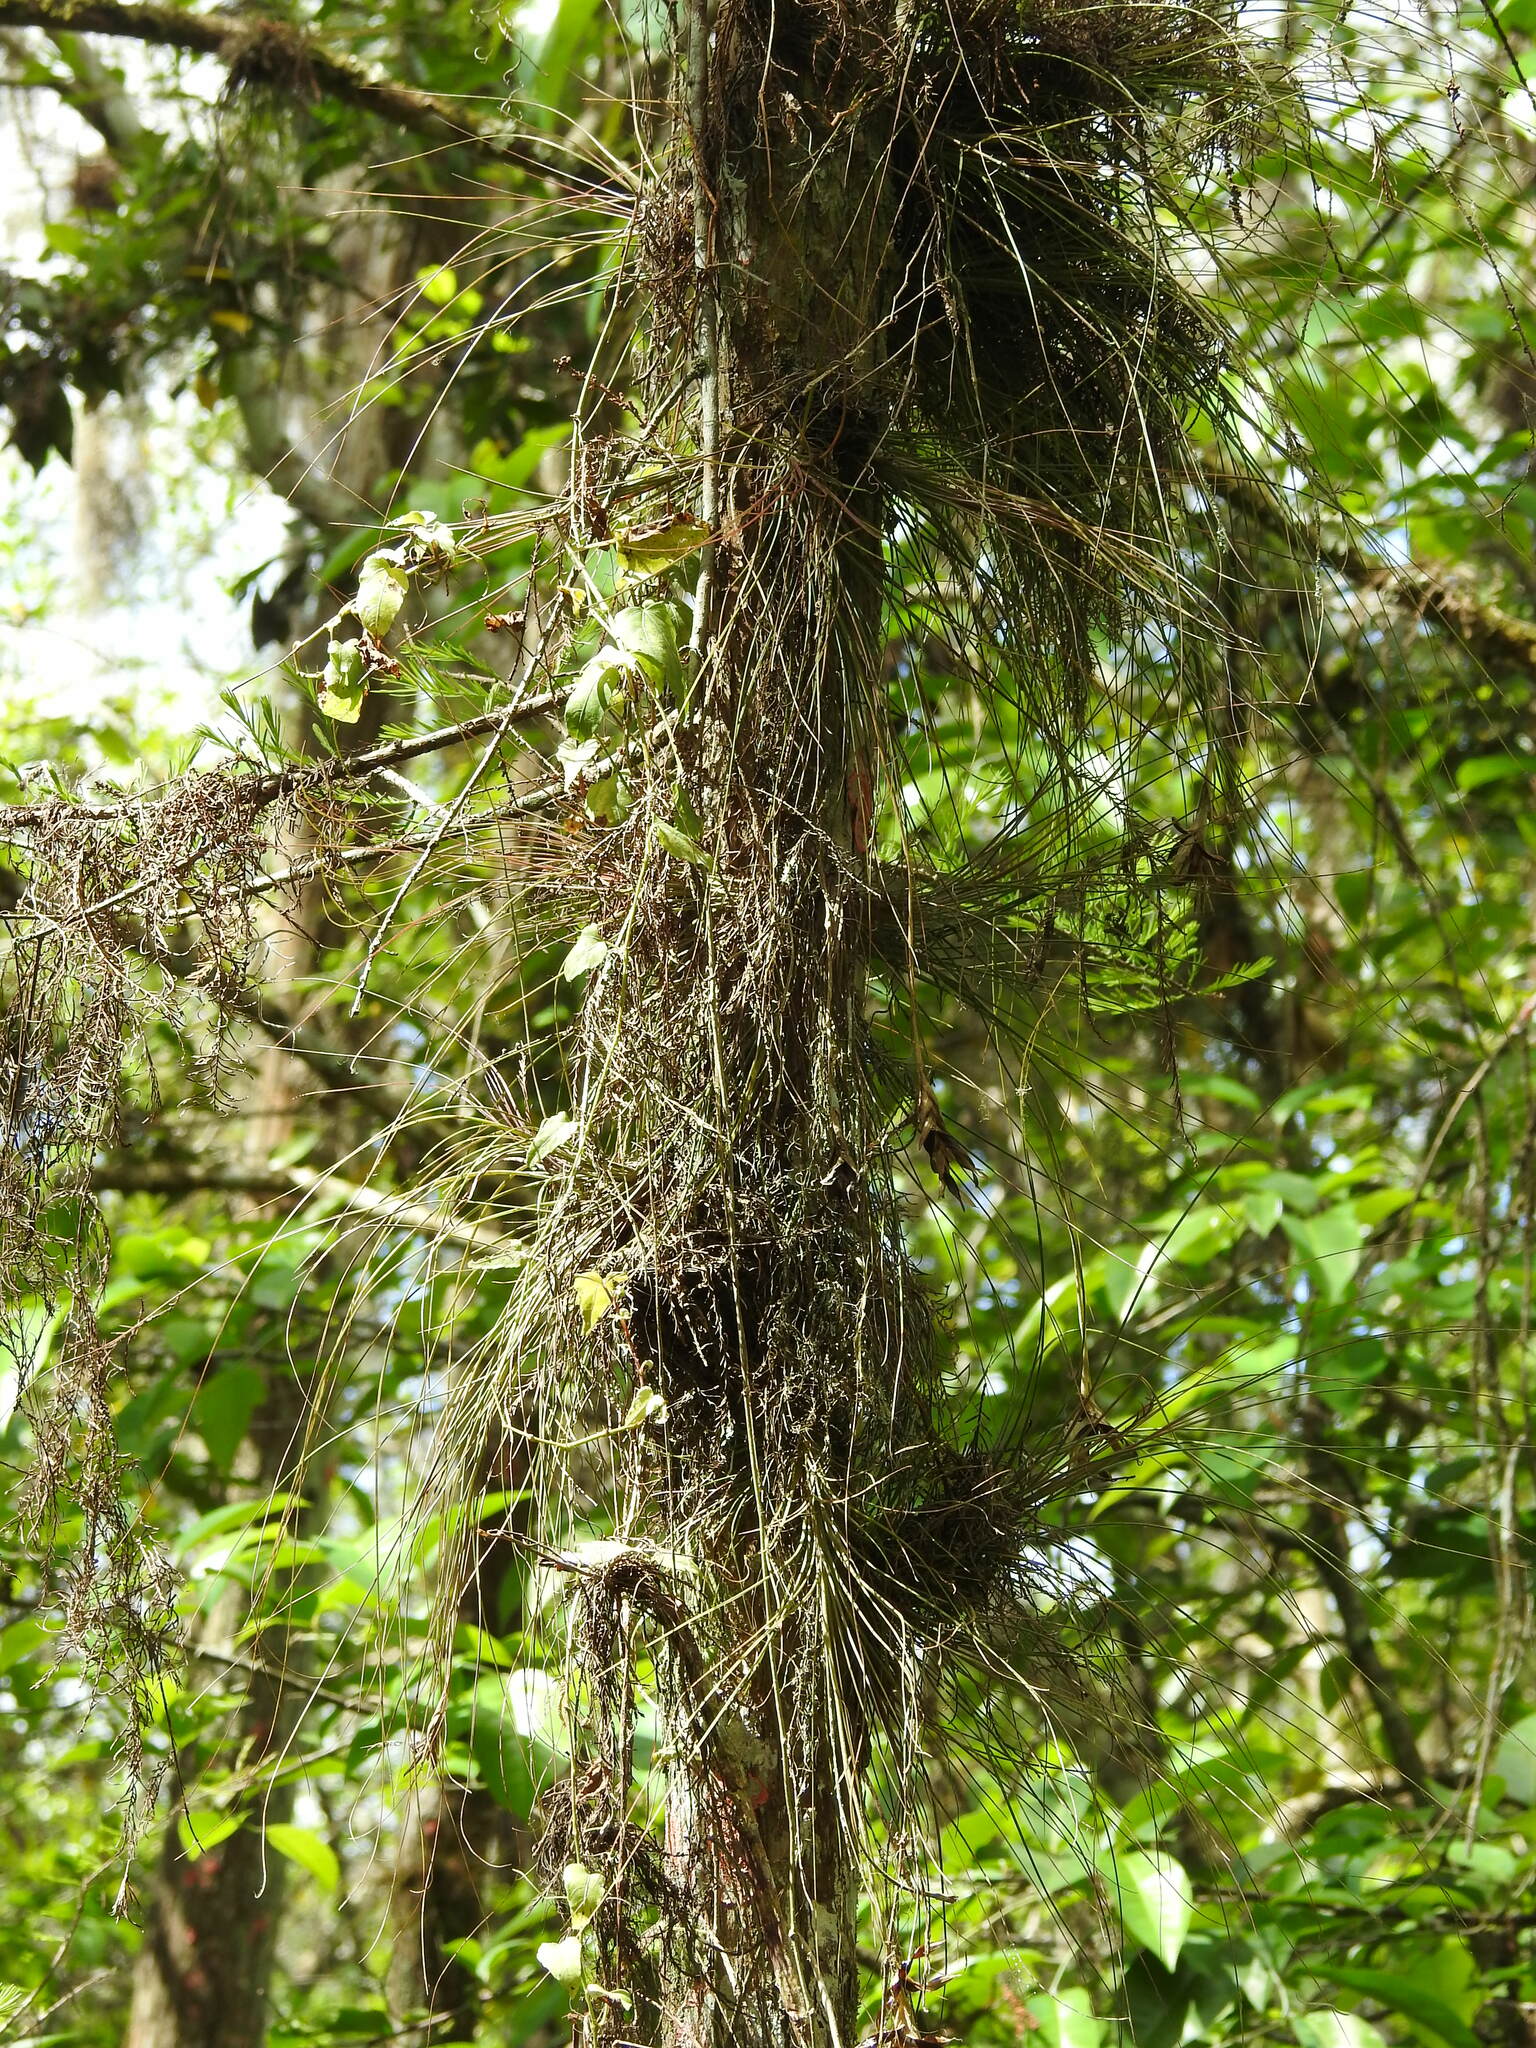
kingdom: Plantae
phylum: Tracheophyta
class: Liliopsida
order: Poales
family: Bromeliaceae
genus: Tillandsia
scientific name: Tillandsia setacea
